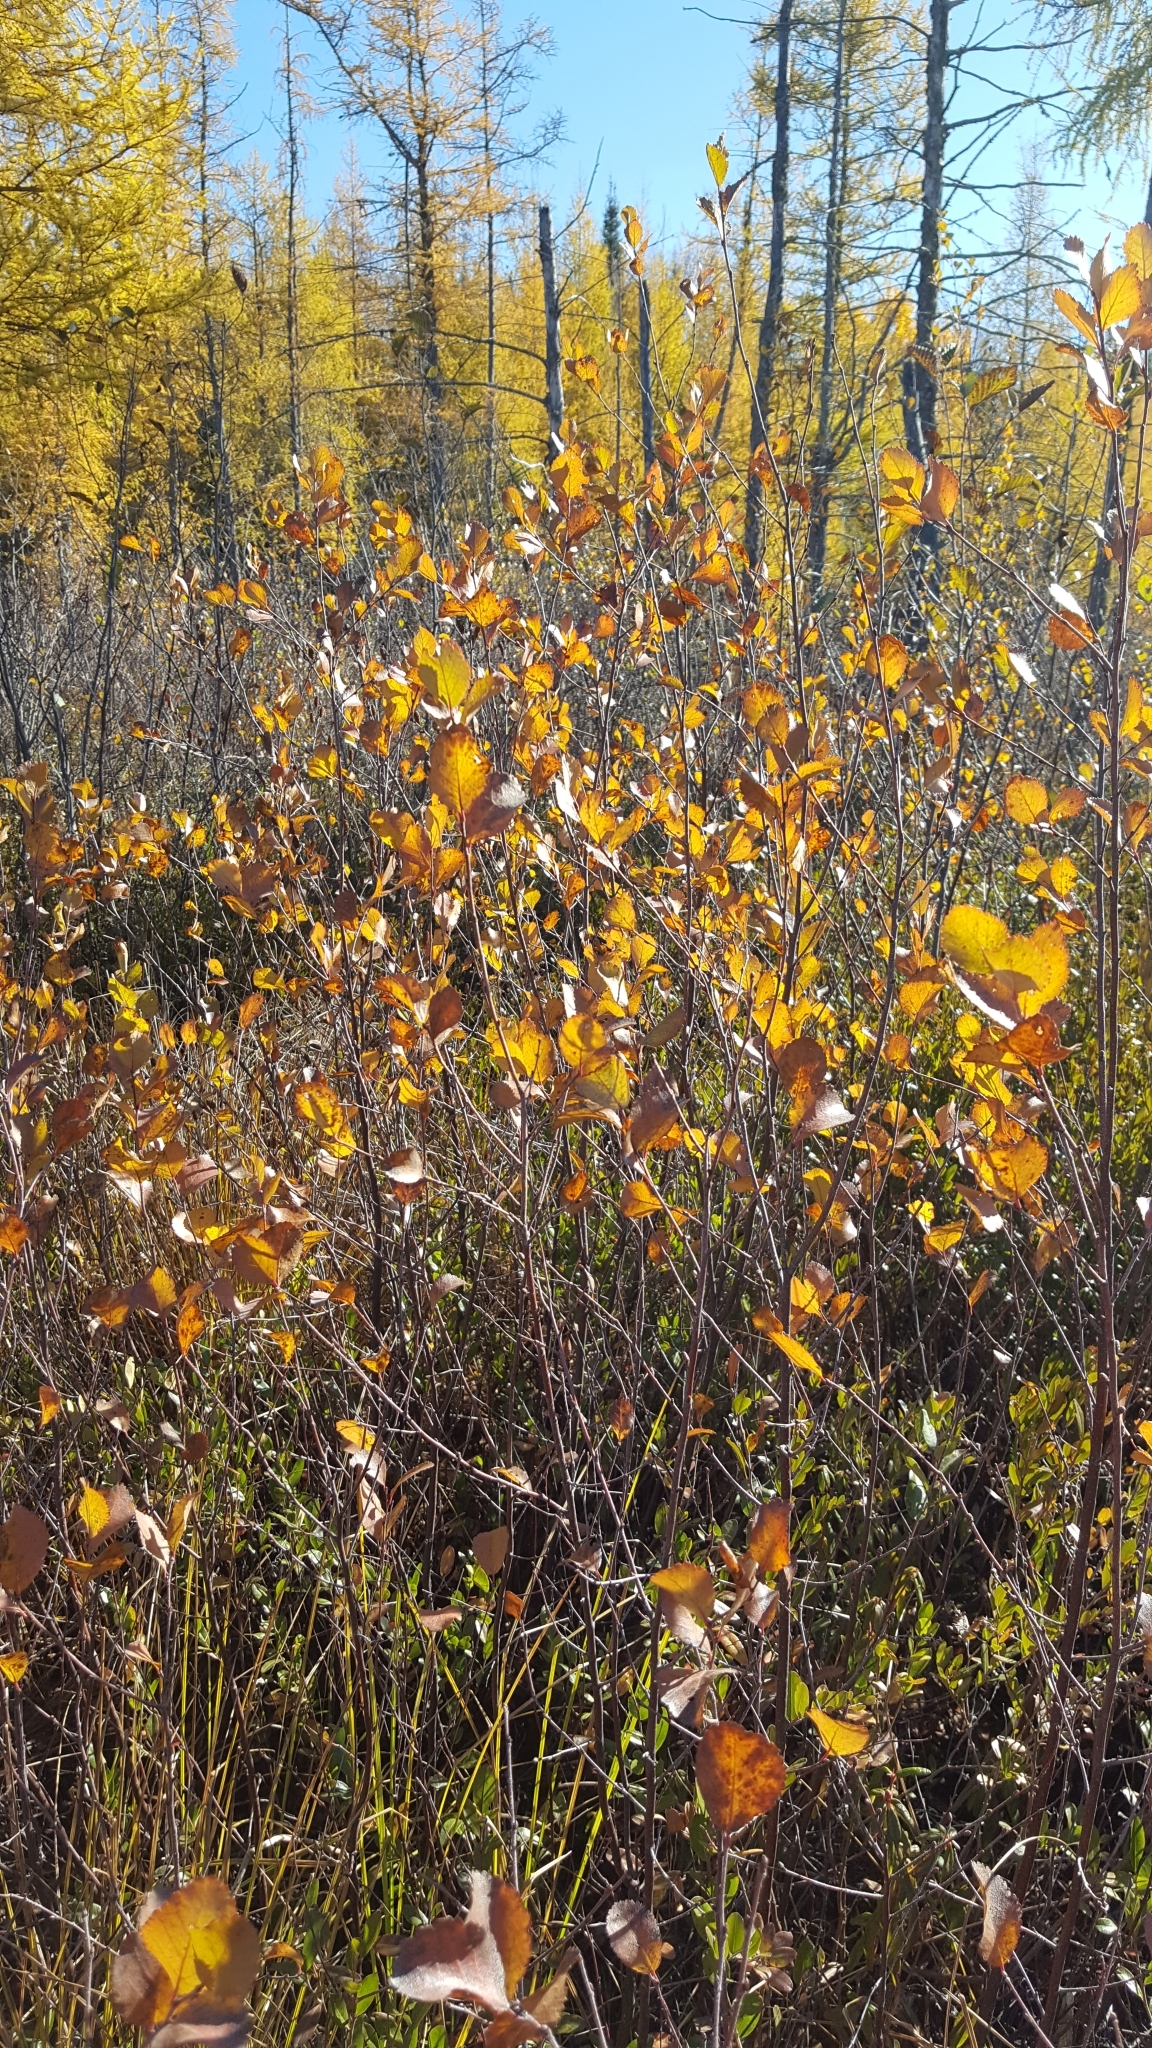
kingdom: Plantae
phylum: Tracheophyta
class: Magnoliopsida
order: Fagales
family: Betulaceae
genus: Betula
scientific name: Betula pumila
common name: Bog birch
